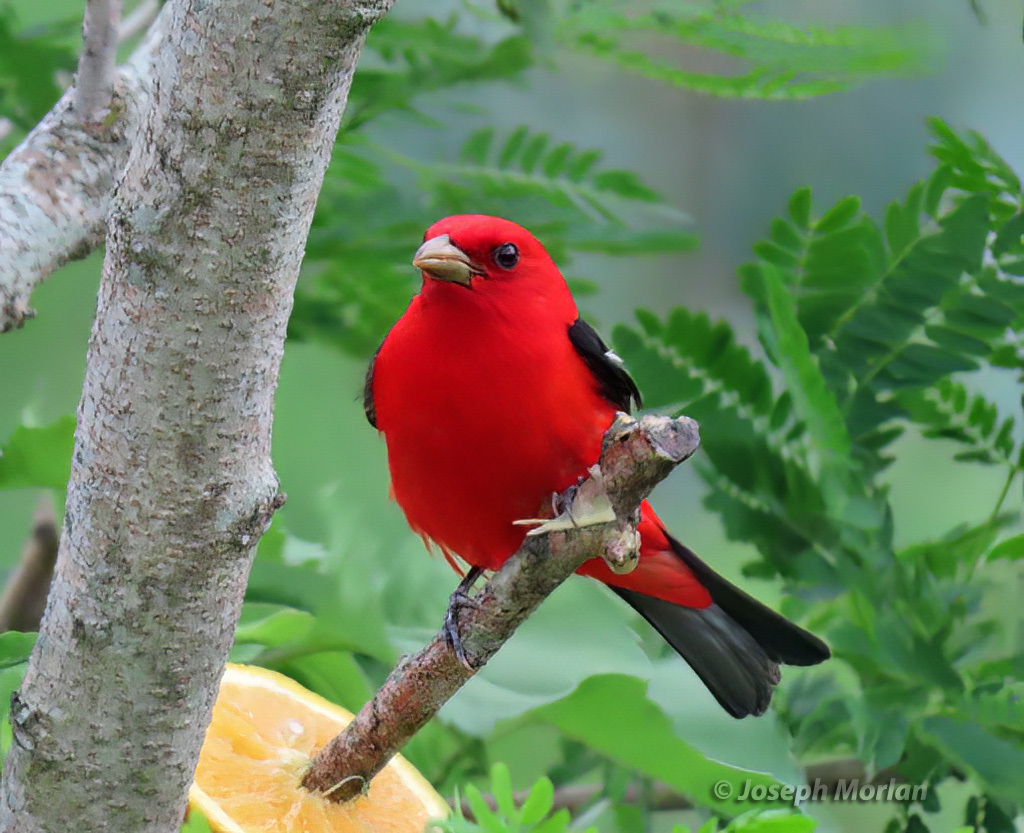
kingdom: Animalia
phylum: Chordata
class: Aves
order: Passeriformes
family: Cardinalidae
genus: Piranga
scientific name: Piranga olivacea
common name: Scarlet tanager
